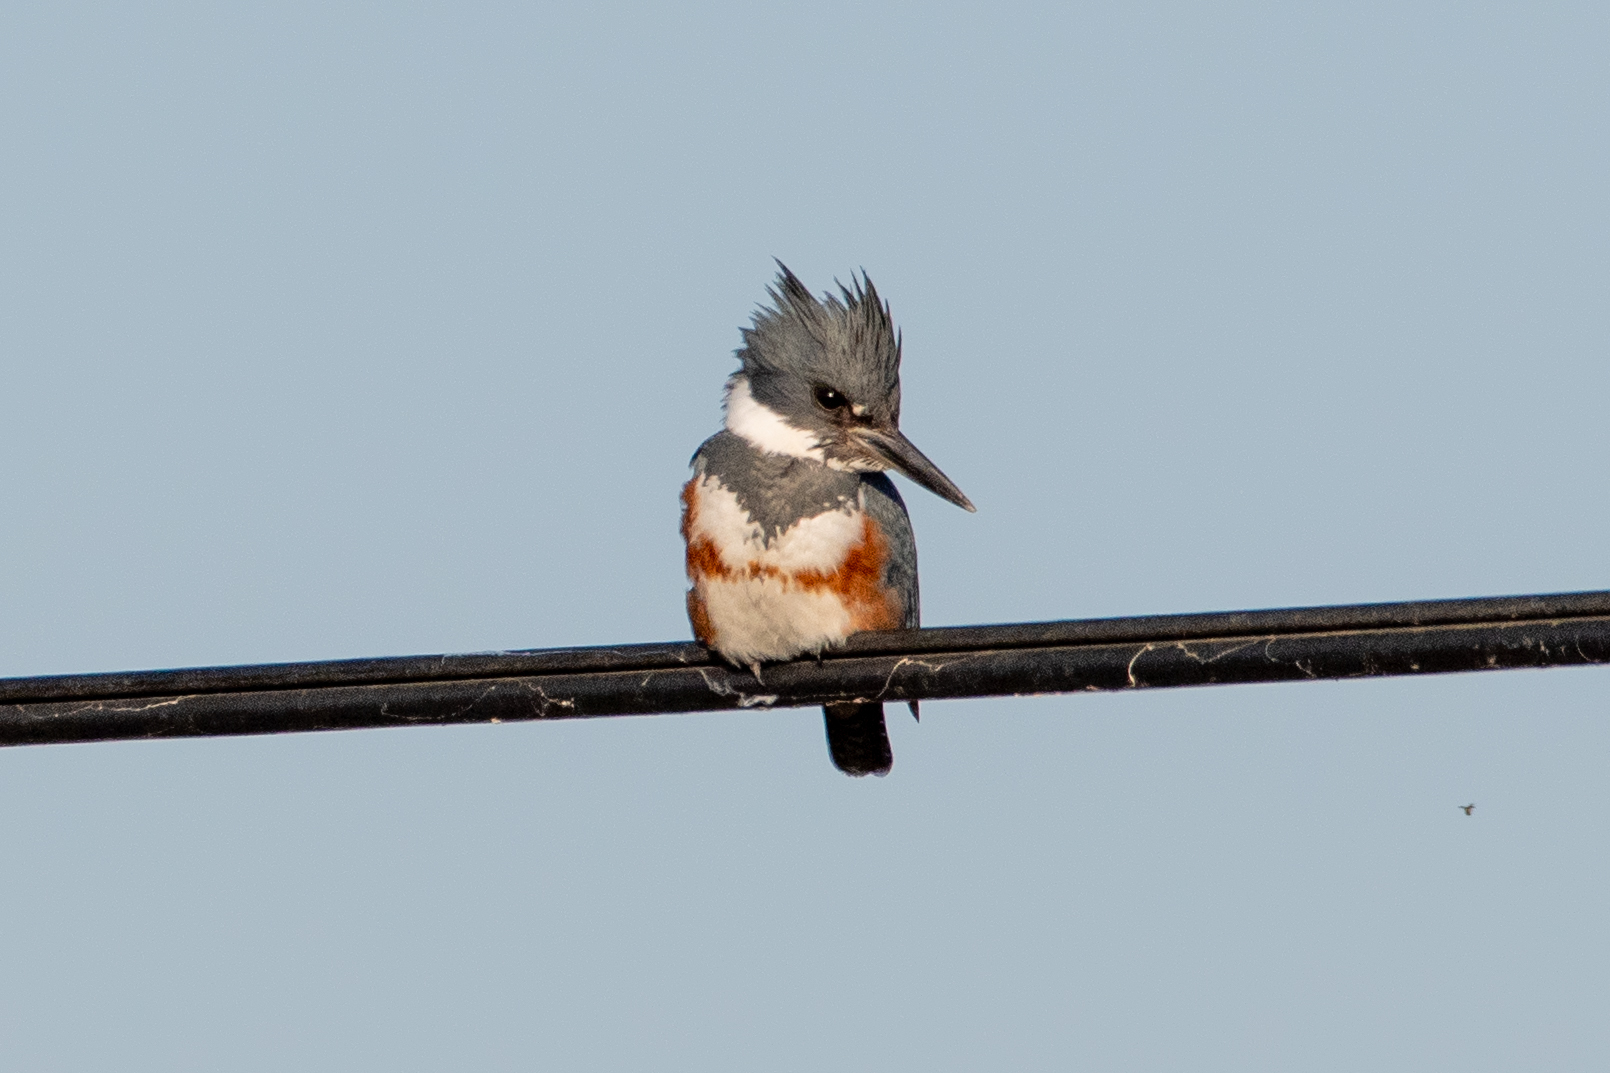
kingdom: Animalia
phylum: Chordata
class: Aves
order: Coraciiformes
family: Alcedinidae
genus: Megaceryle
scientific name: Megaceryle alcyon
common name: Belted kingfisher
